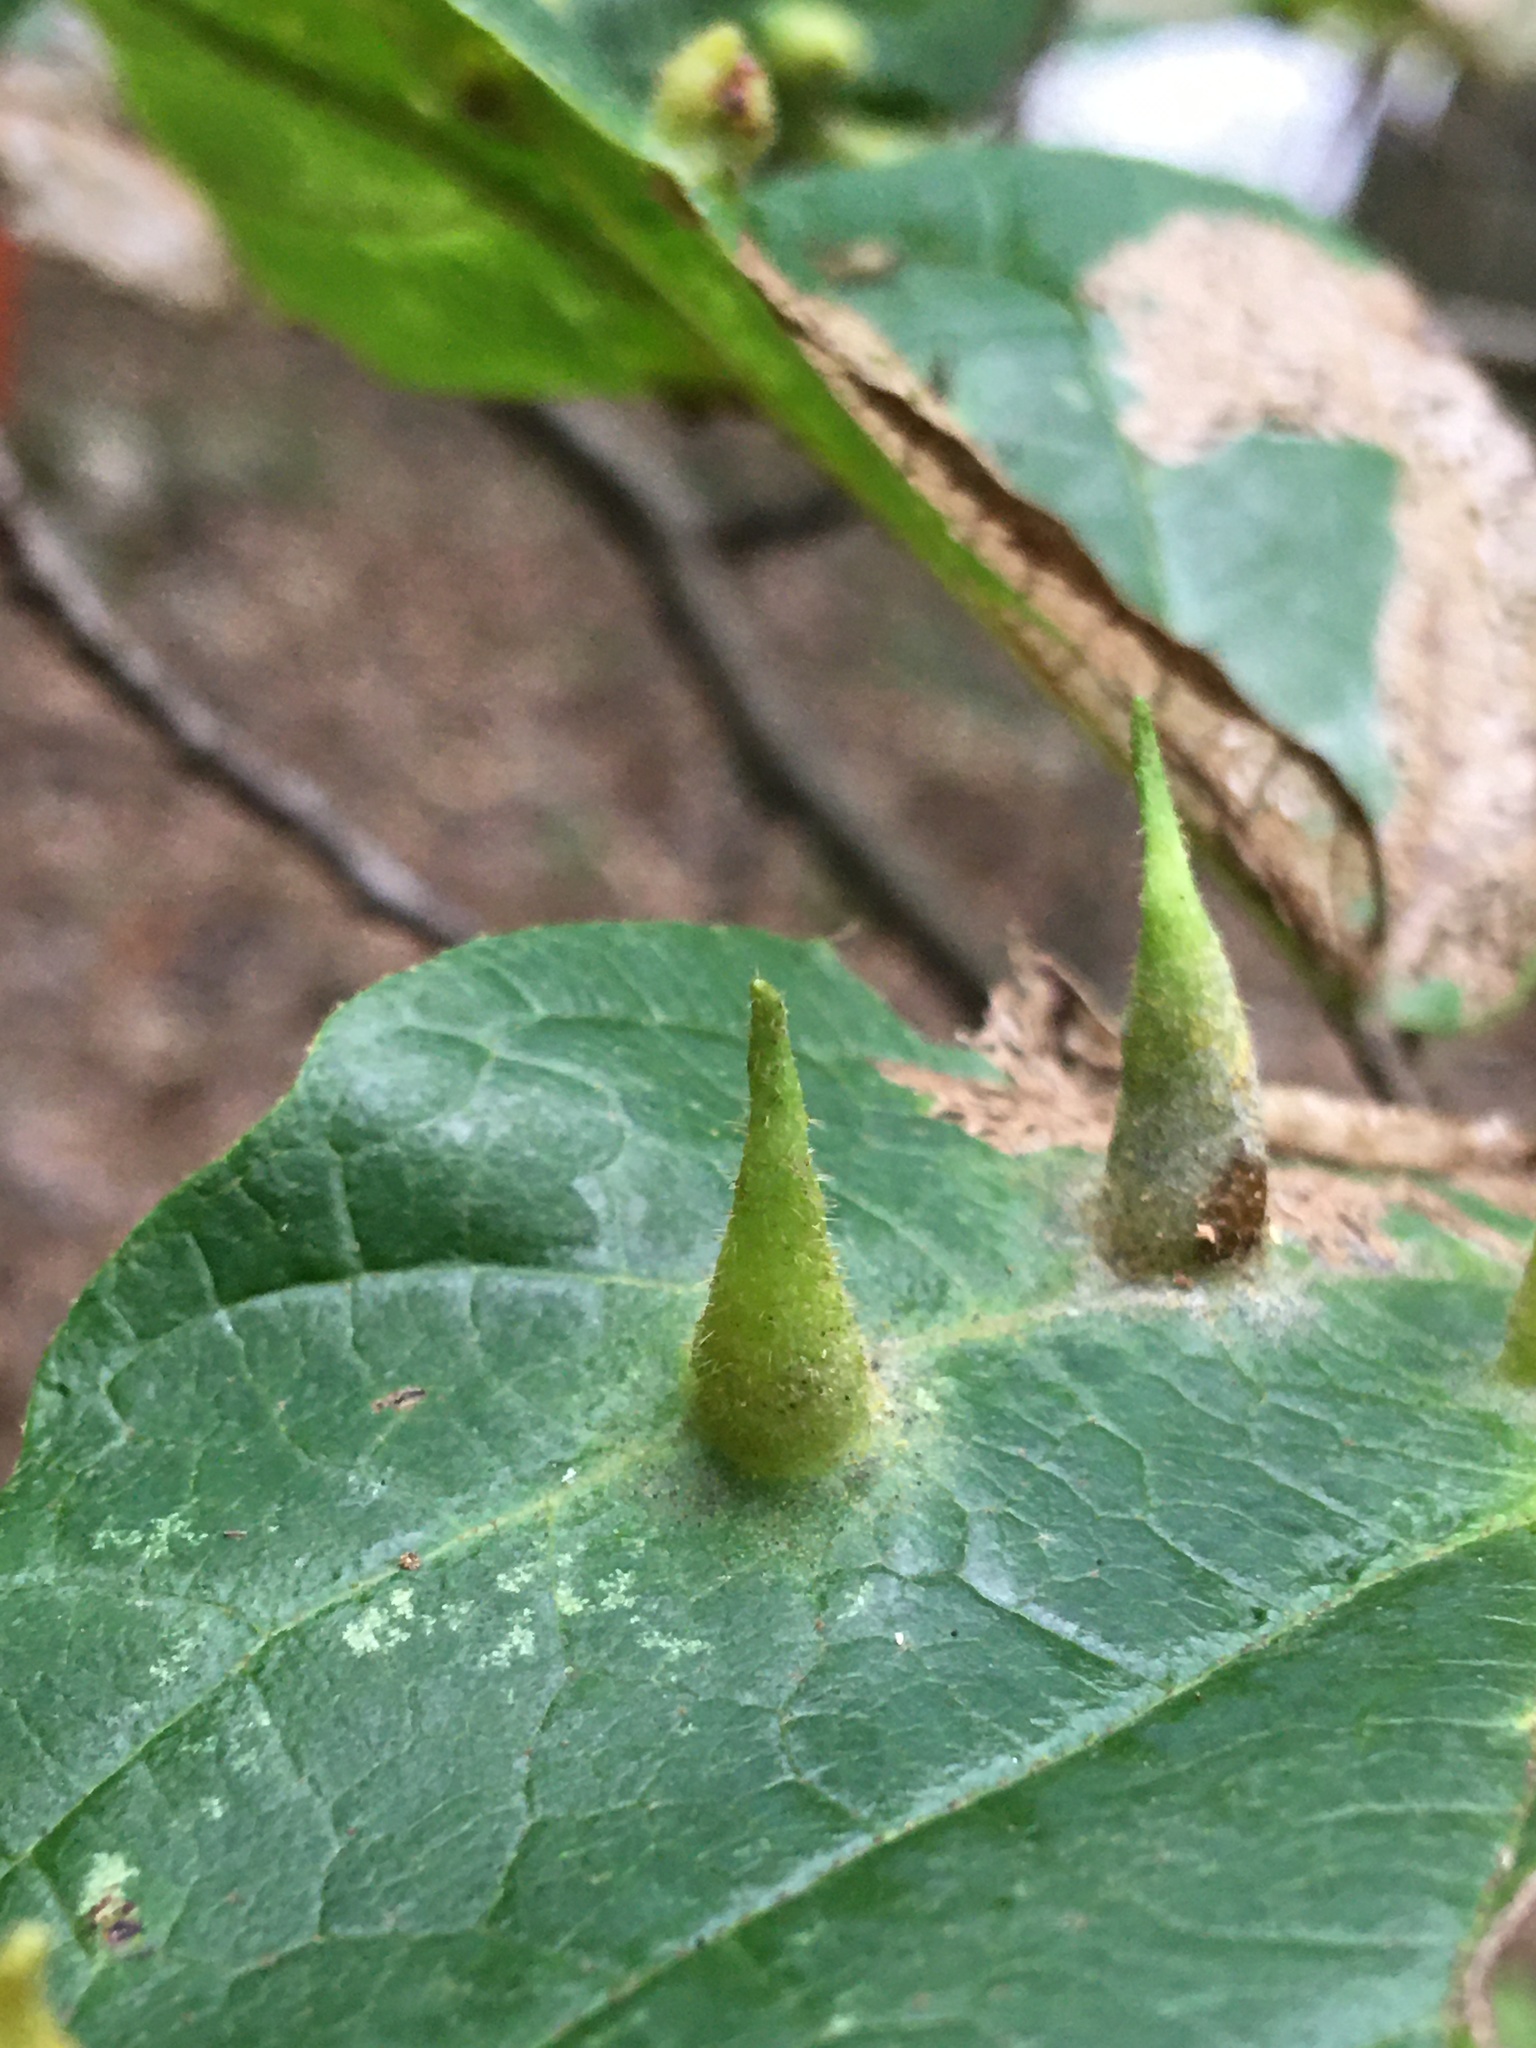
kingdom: Animalia
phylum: Arthropoda
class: Insecta
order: Hemiptera
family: Aphididae
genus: Hormaphis
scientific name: Hormaphis hamamelidis
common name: Witch-hazel cone gall aphid
